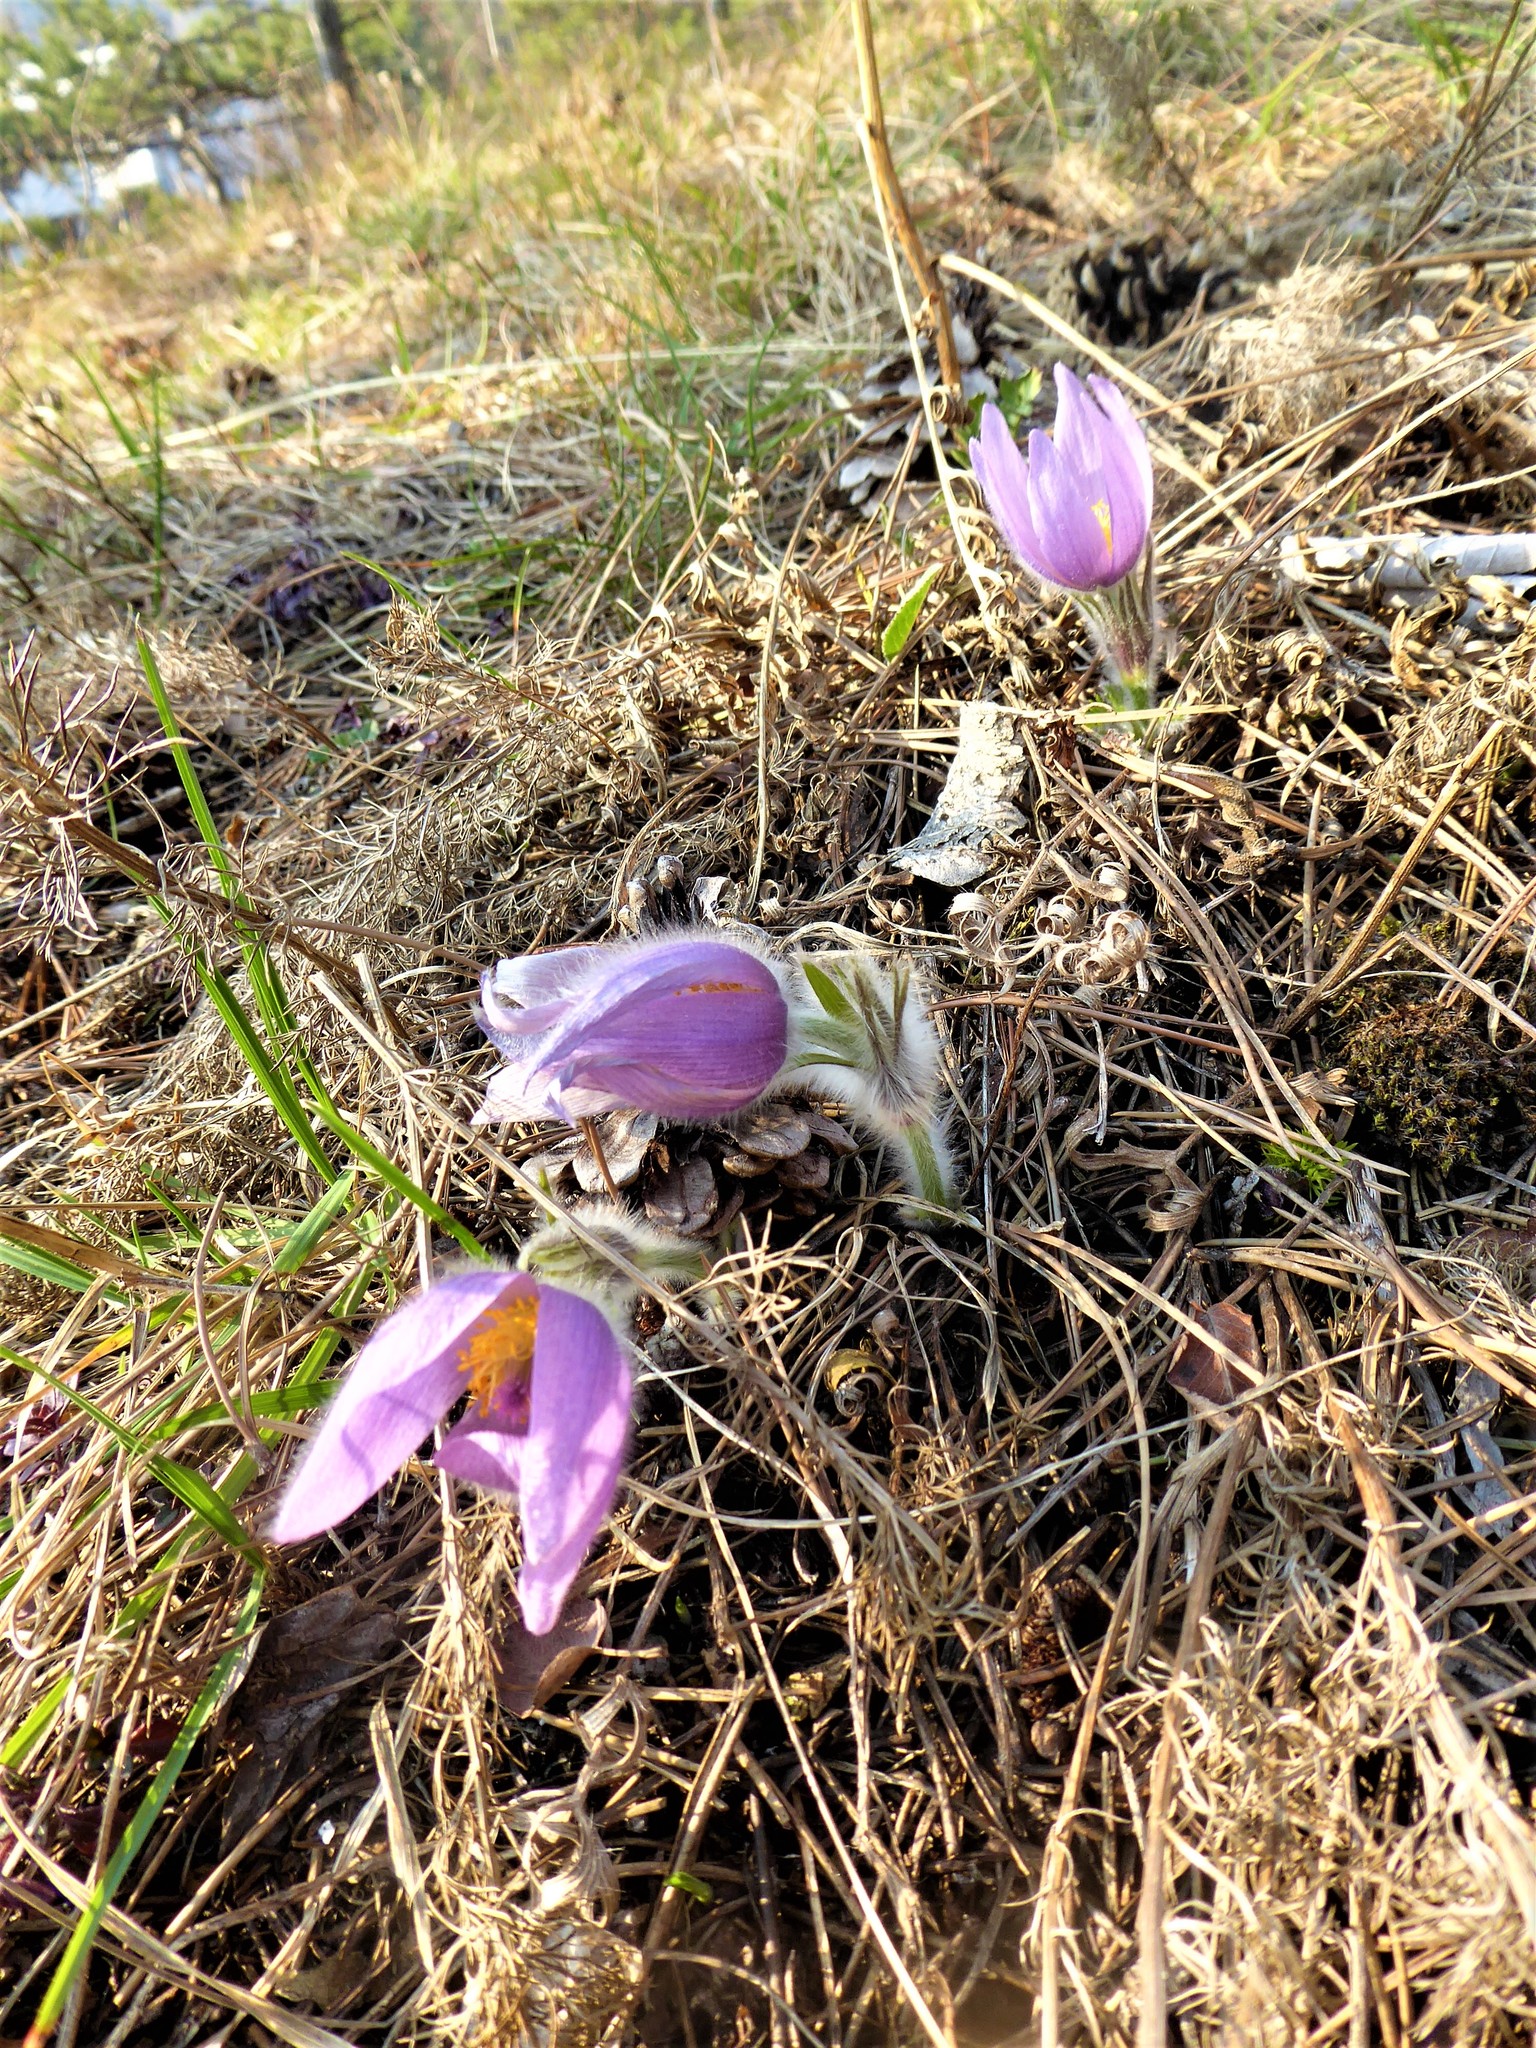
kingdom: Plantae
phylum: Tracheophyta
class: Magnoliopsida
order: Ranunculales
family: Ranunculaceae
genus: Pulsatilla
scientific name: Pulsatilla grandis
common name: Greater pasque flower
